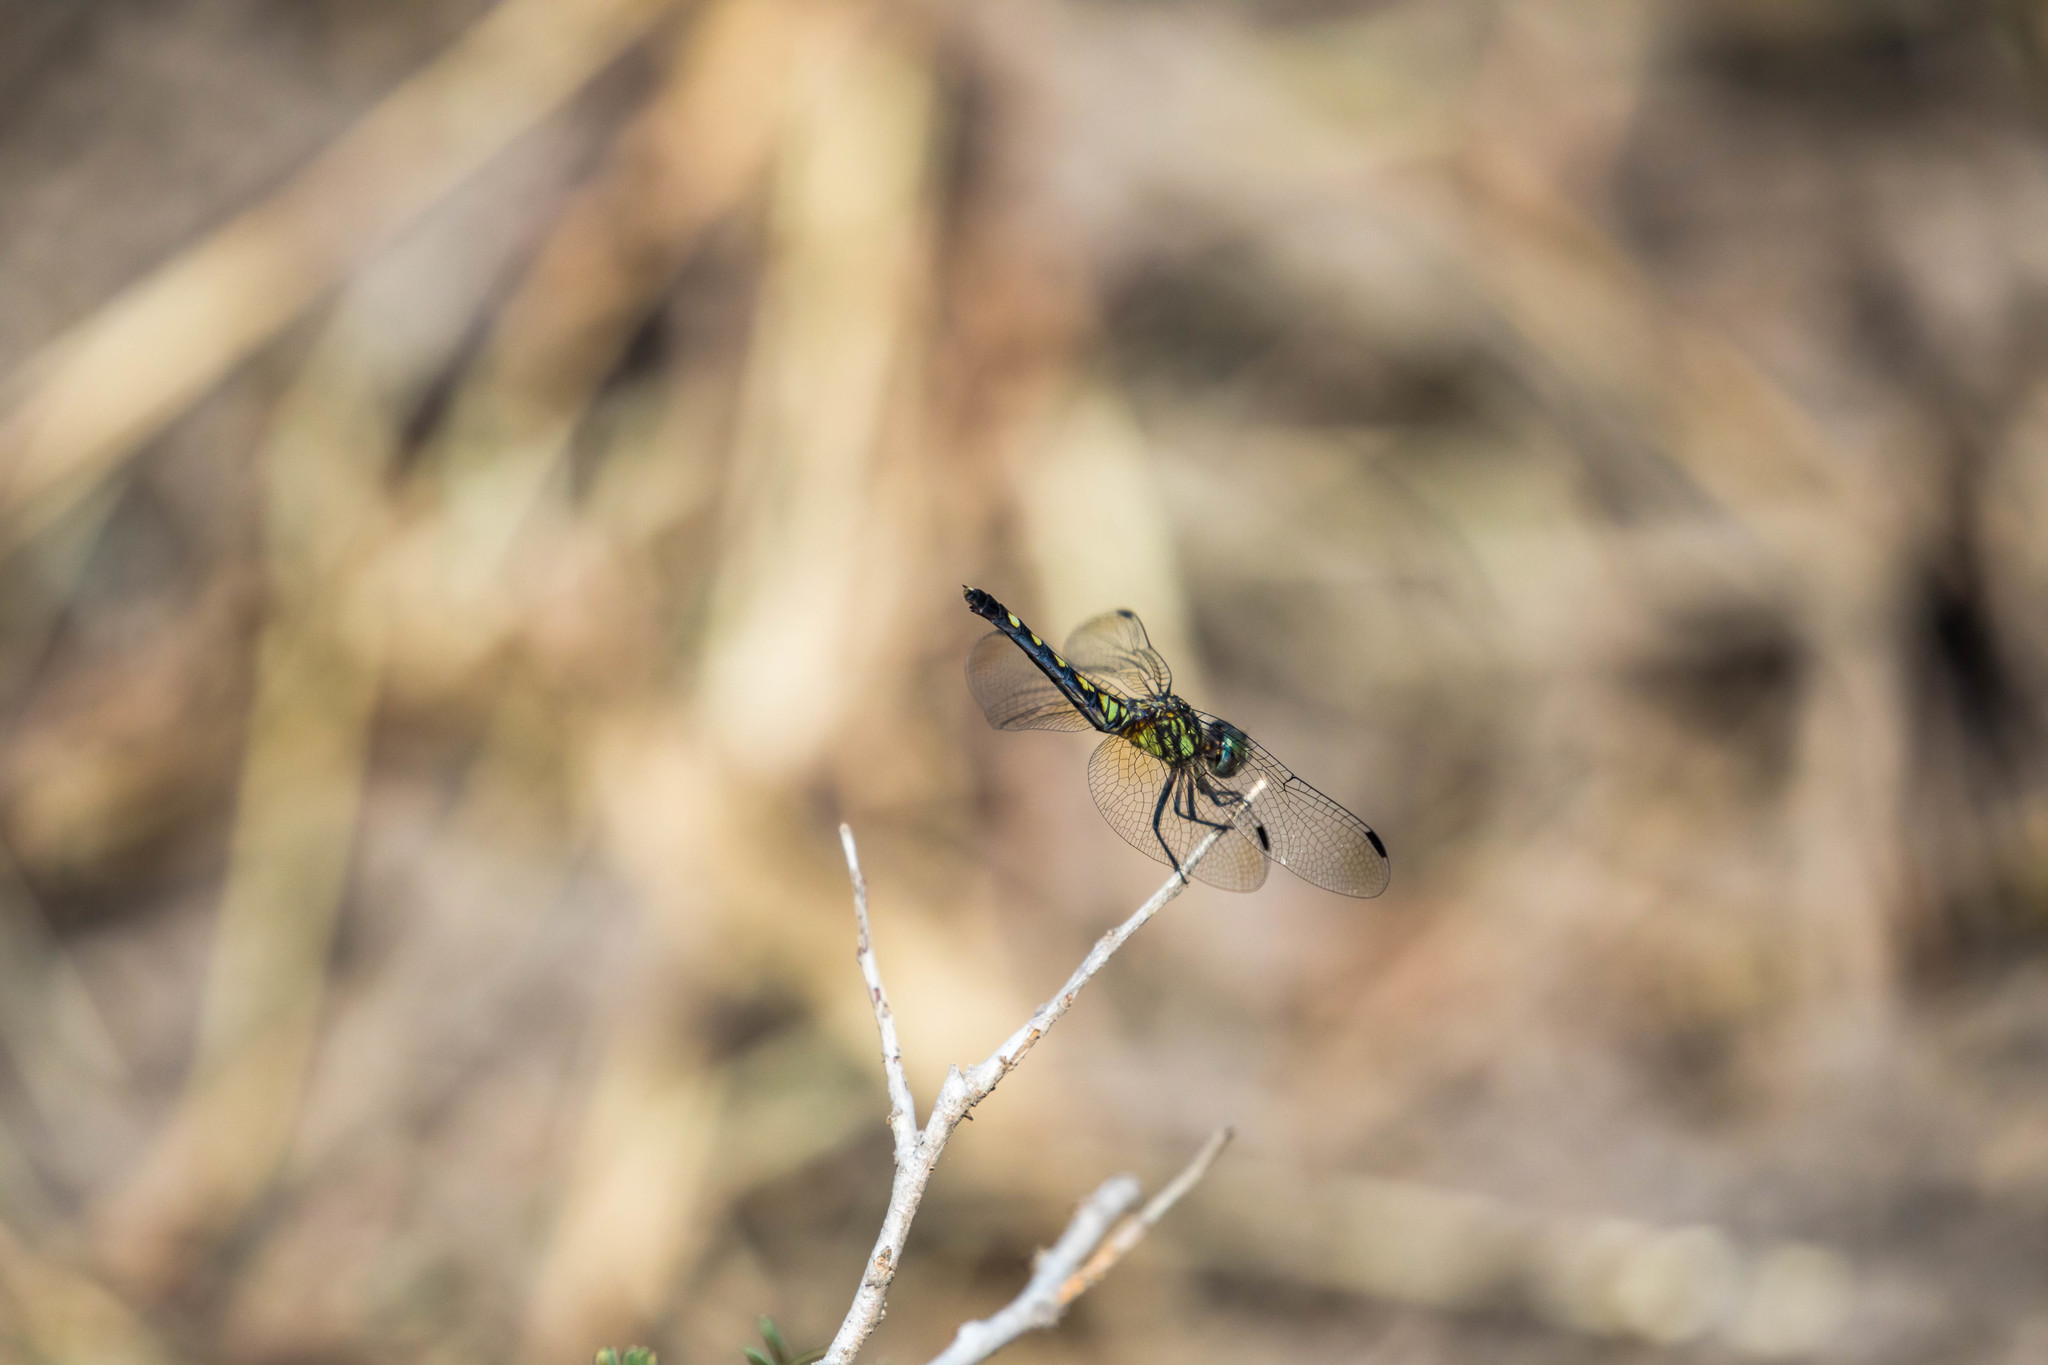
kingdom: Animalia
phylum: Arthropoda
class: Insecta
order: Odonata
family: Libellulidae
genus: Micrathyria
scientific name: Micrathyria hagenii
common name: Thornbush dasher
